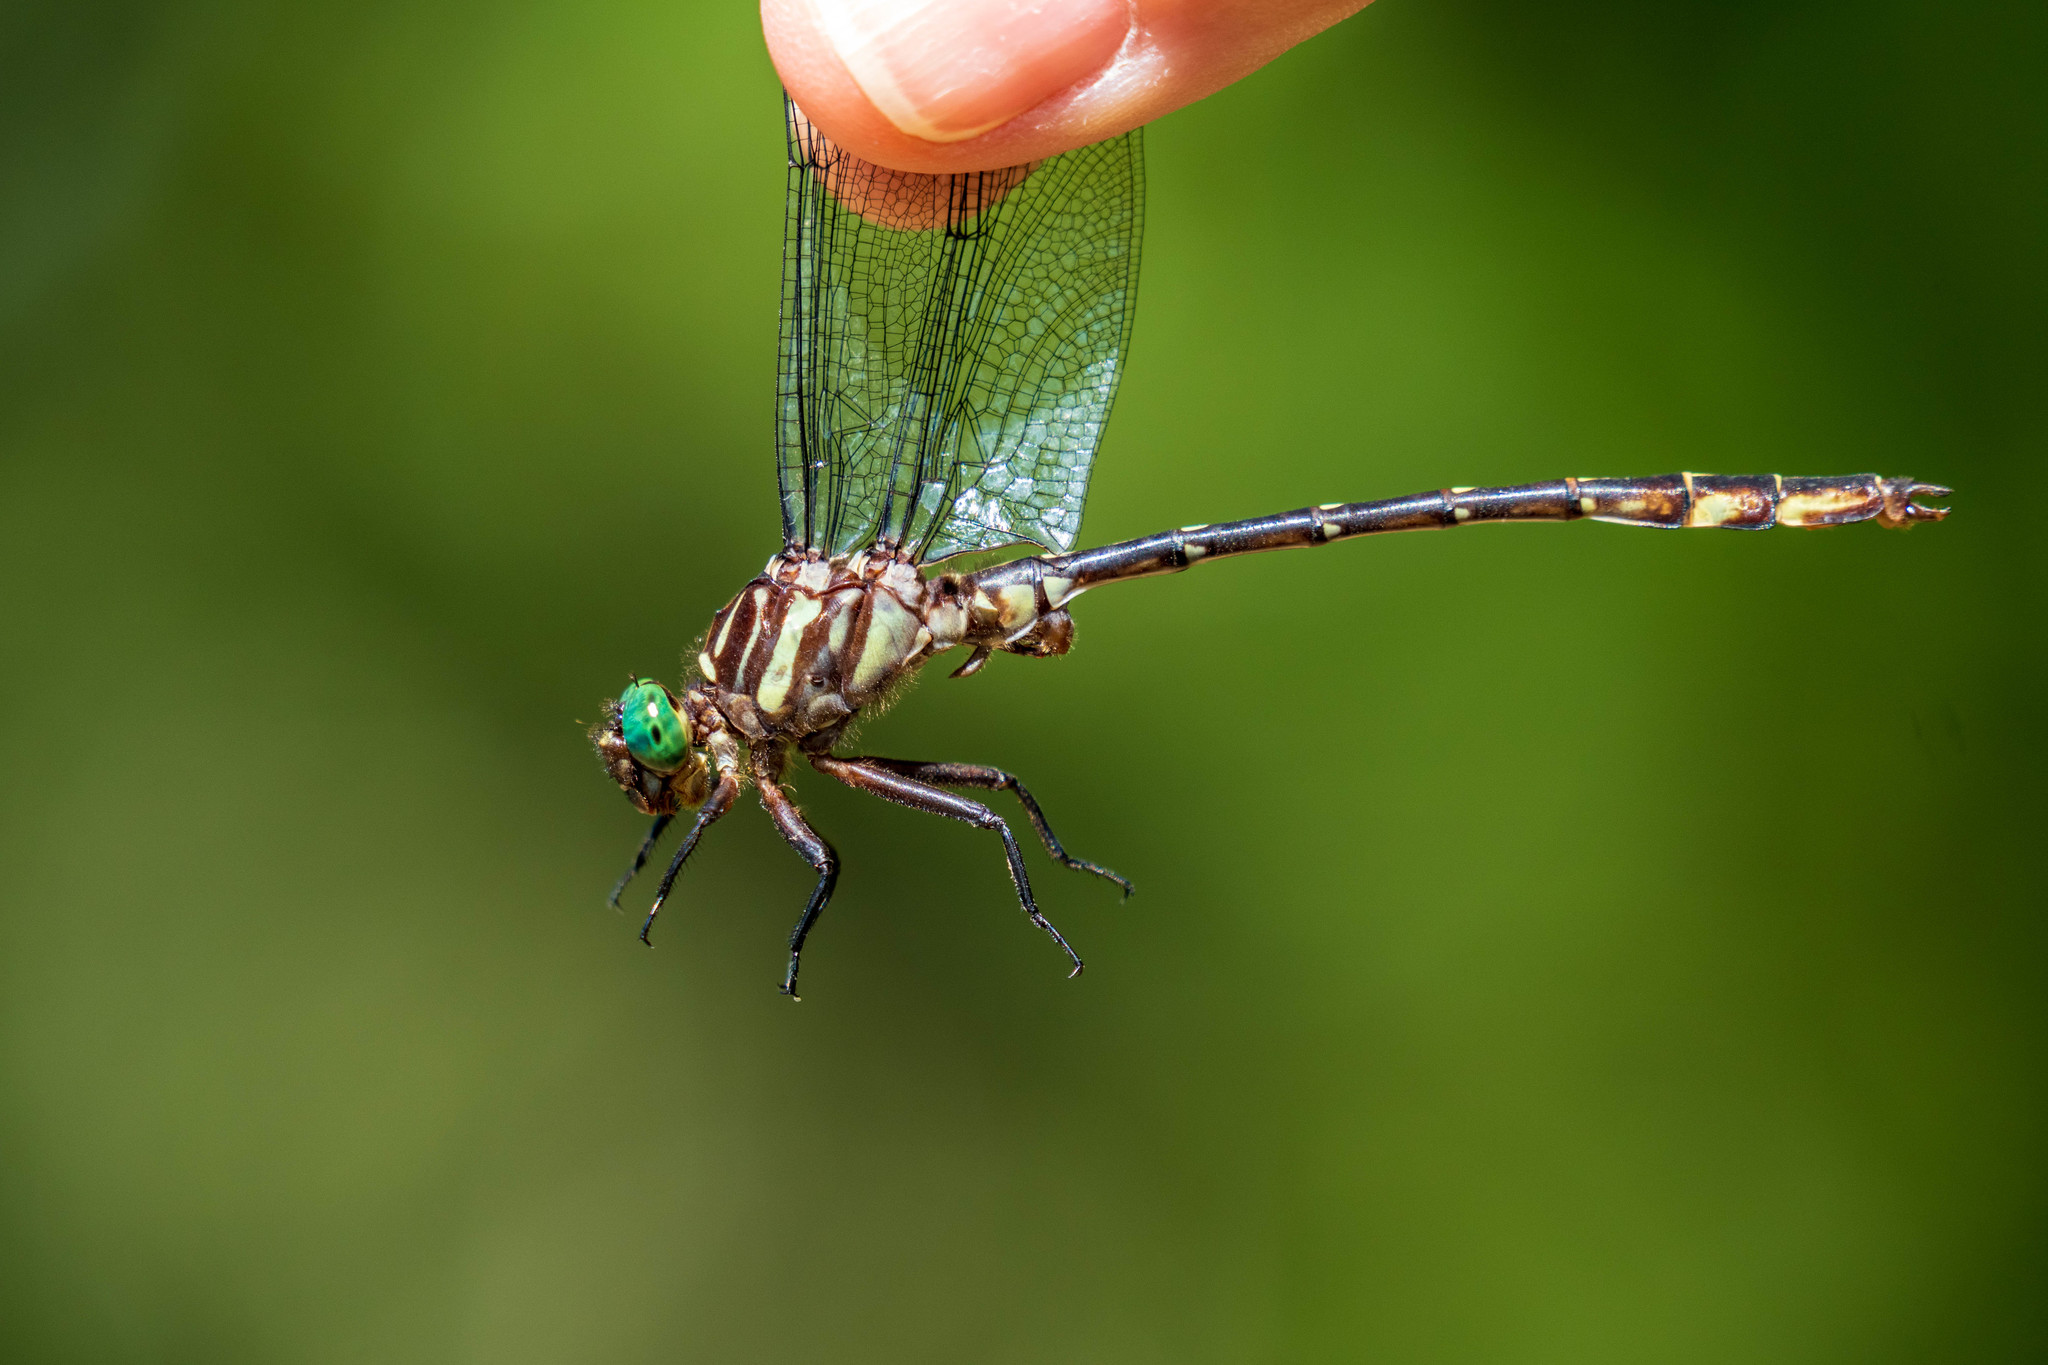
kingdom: Animalia
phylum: Arthropoda
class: Insecta
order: Odonata
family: Gomphidae
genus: Stylurus
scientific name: Stylurus spiniceps
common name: Arrow clubtail
